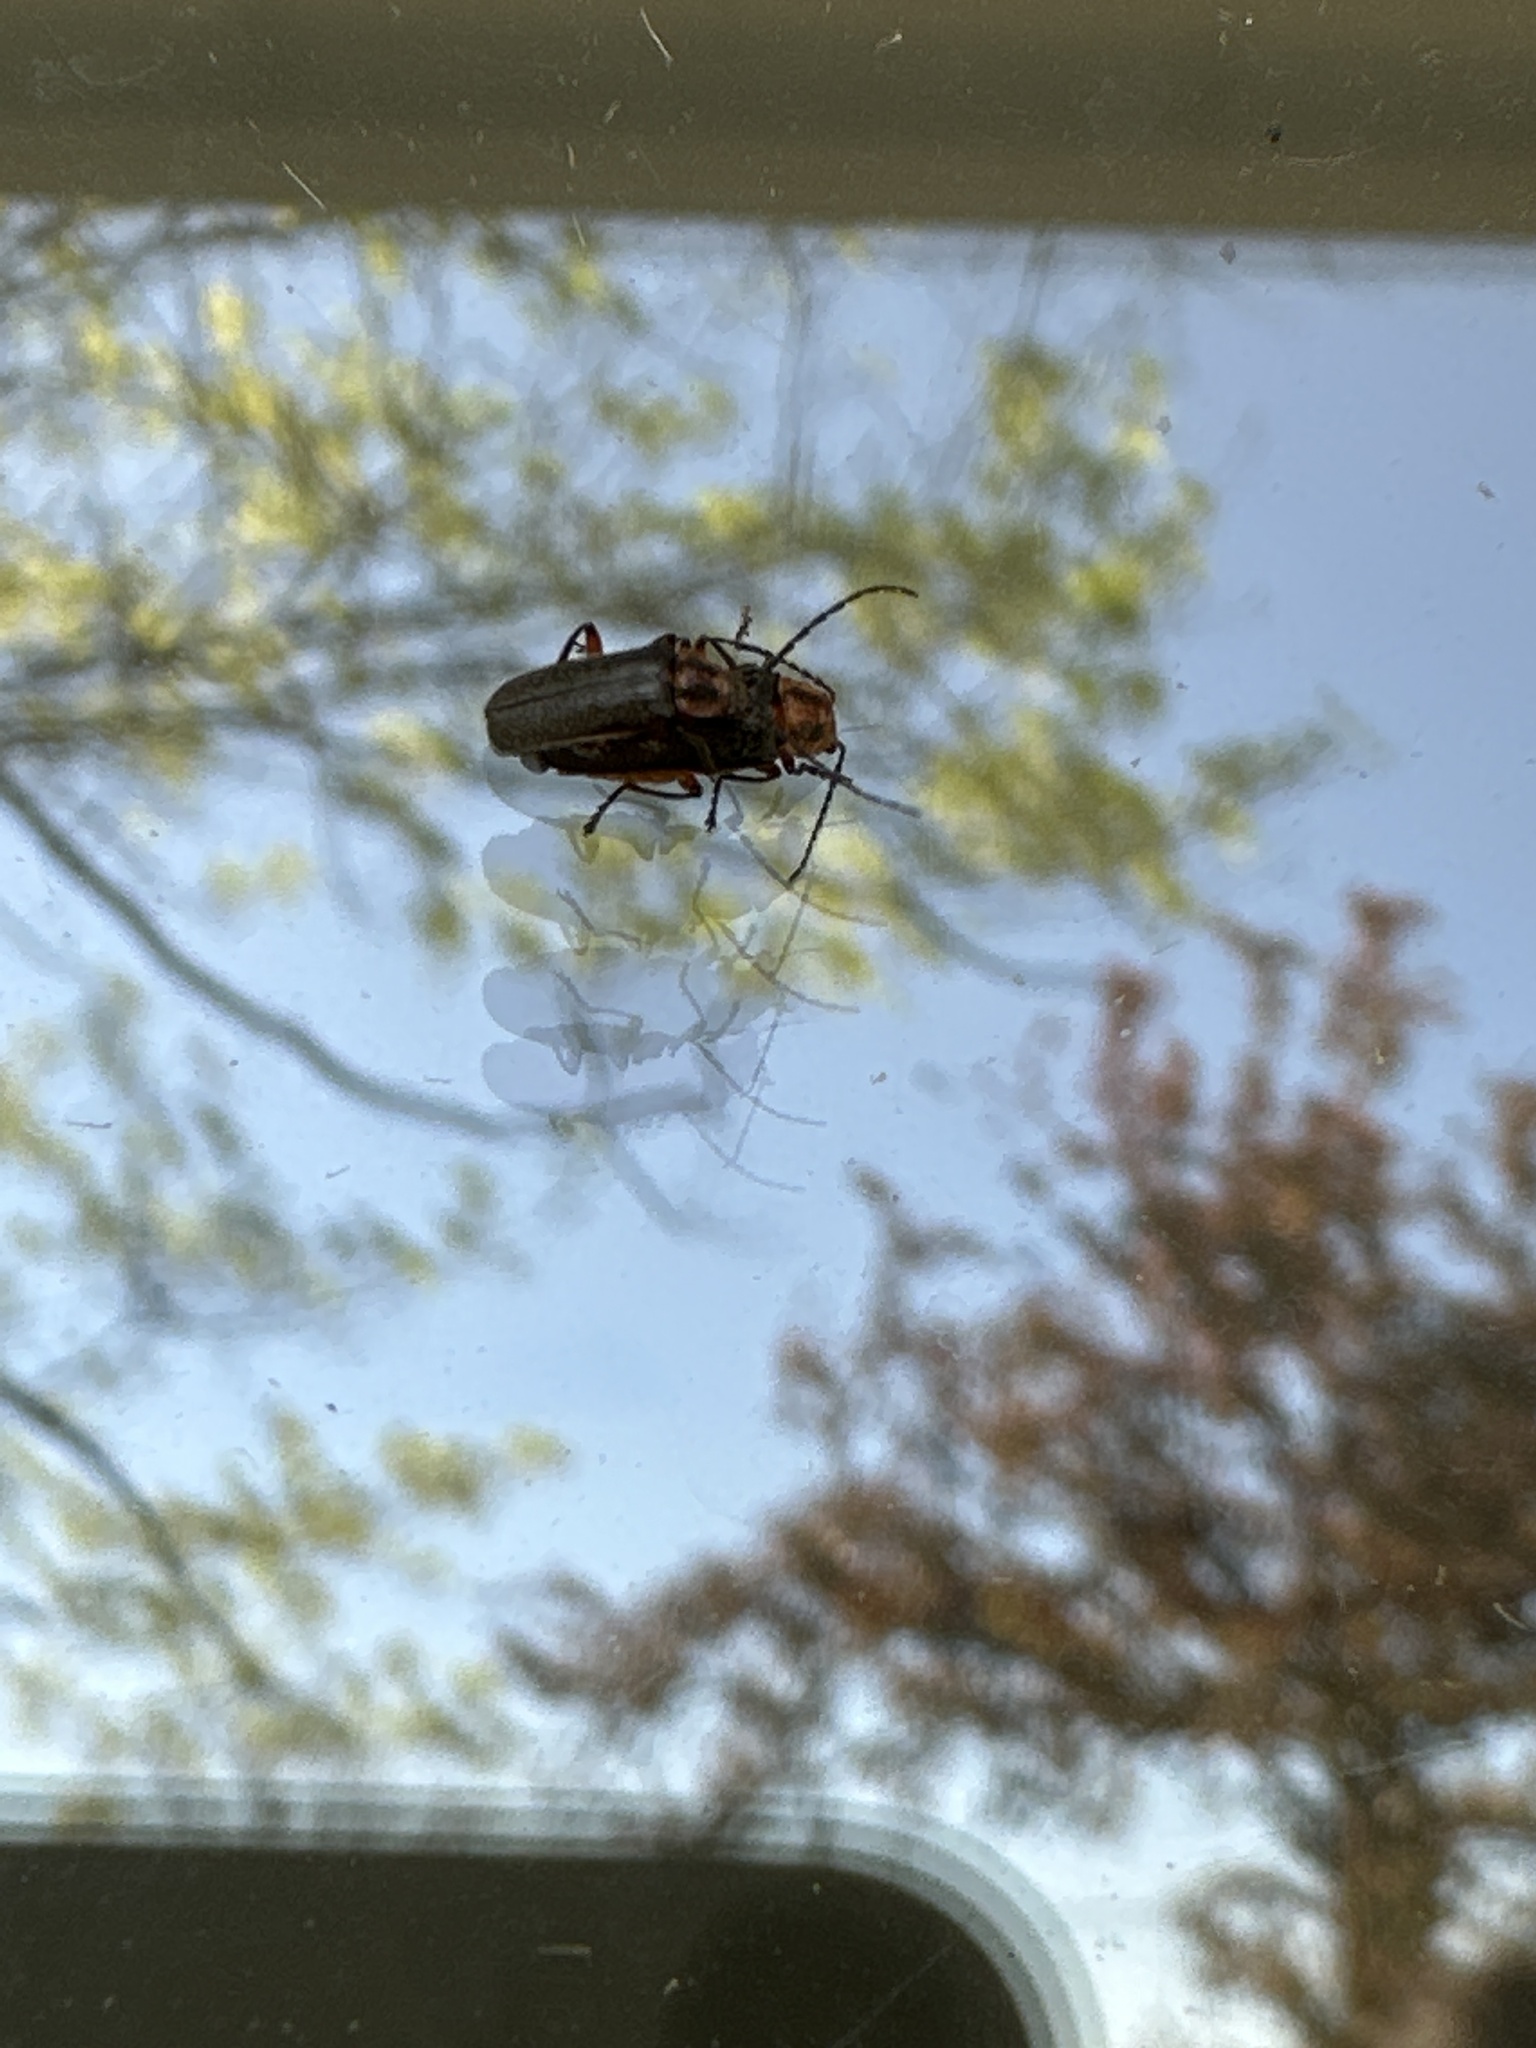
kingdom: Animalia
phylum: Arthropoda
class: Insecta
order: Coleoptera
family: Cantharidae
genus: Atalantycha
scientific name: Atalantycha bilineata
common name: Two-lined leatherwing
